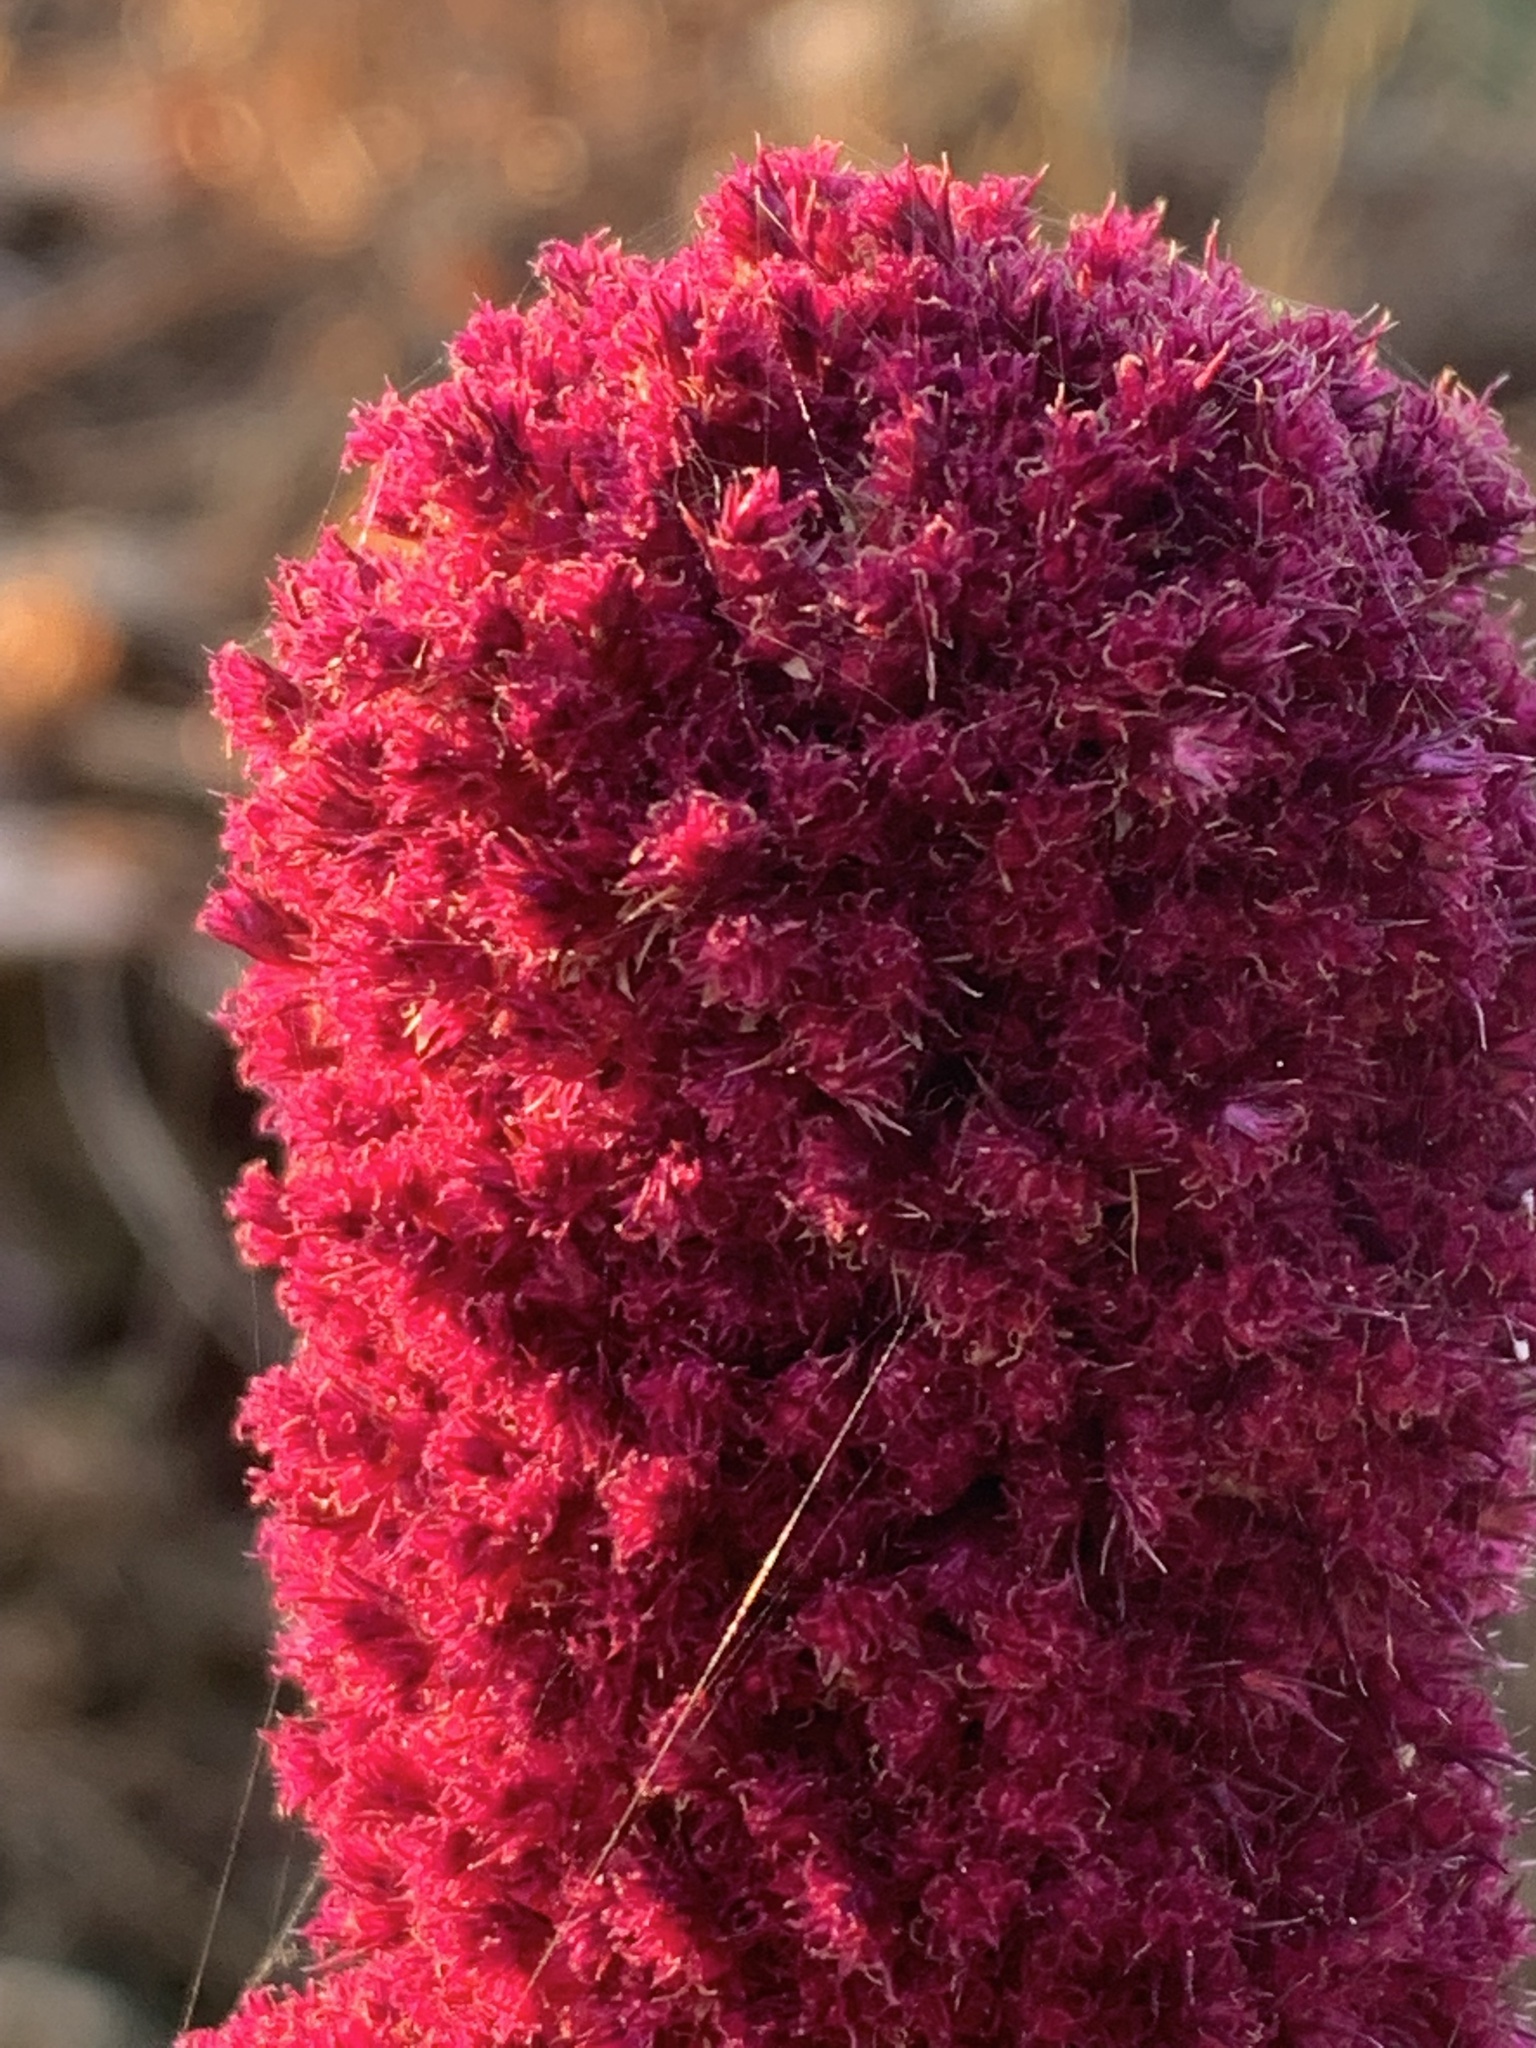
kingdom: Plantae
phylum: Tracheophyta
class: Magnoliopsida
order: Caryophyllales
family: Amaranthaceae
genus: Amaranthus
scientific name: Amaranthus caudatus
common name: Love-lies-bleeding
